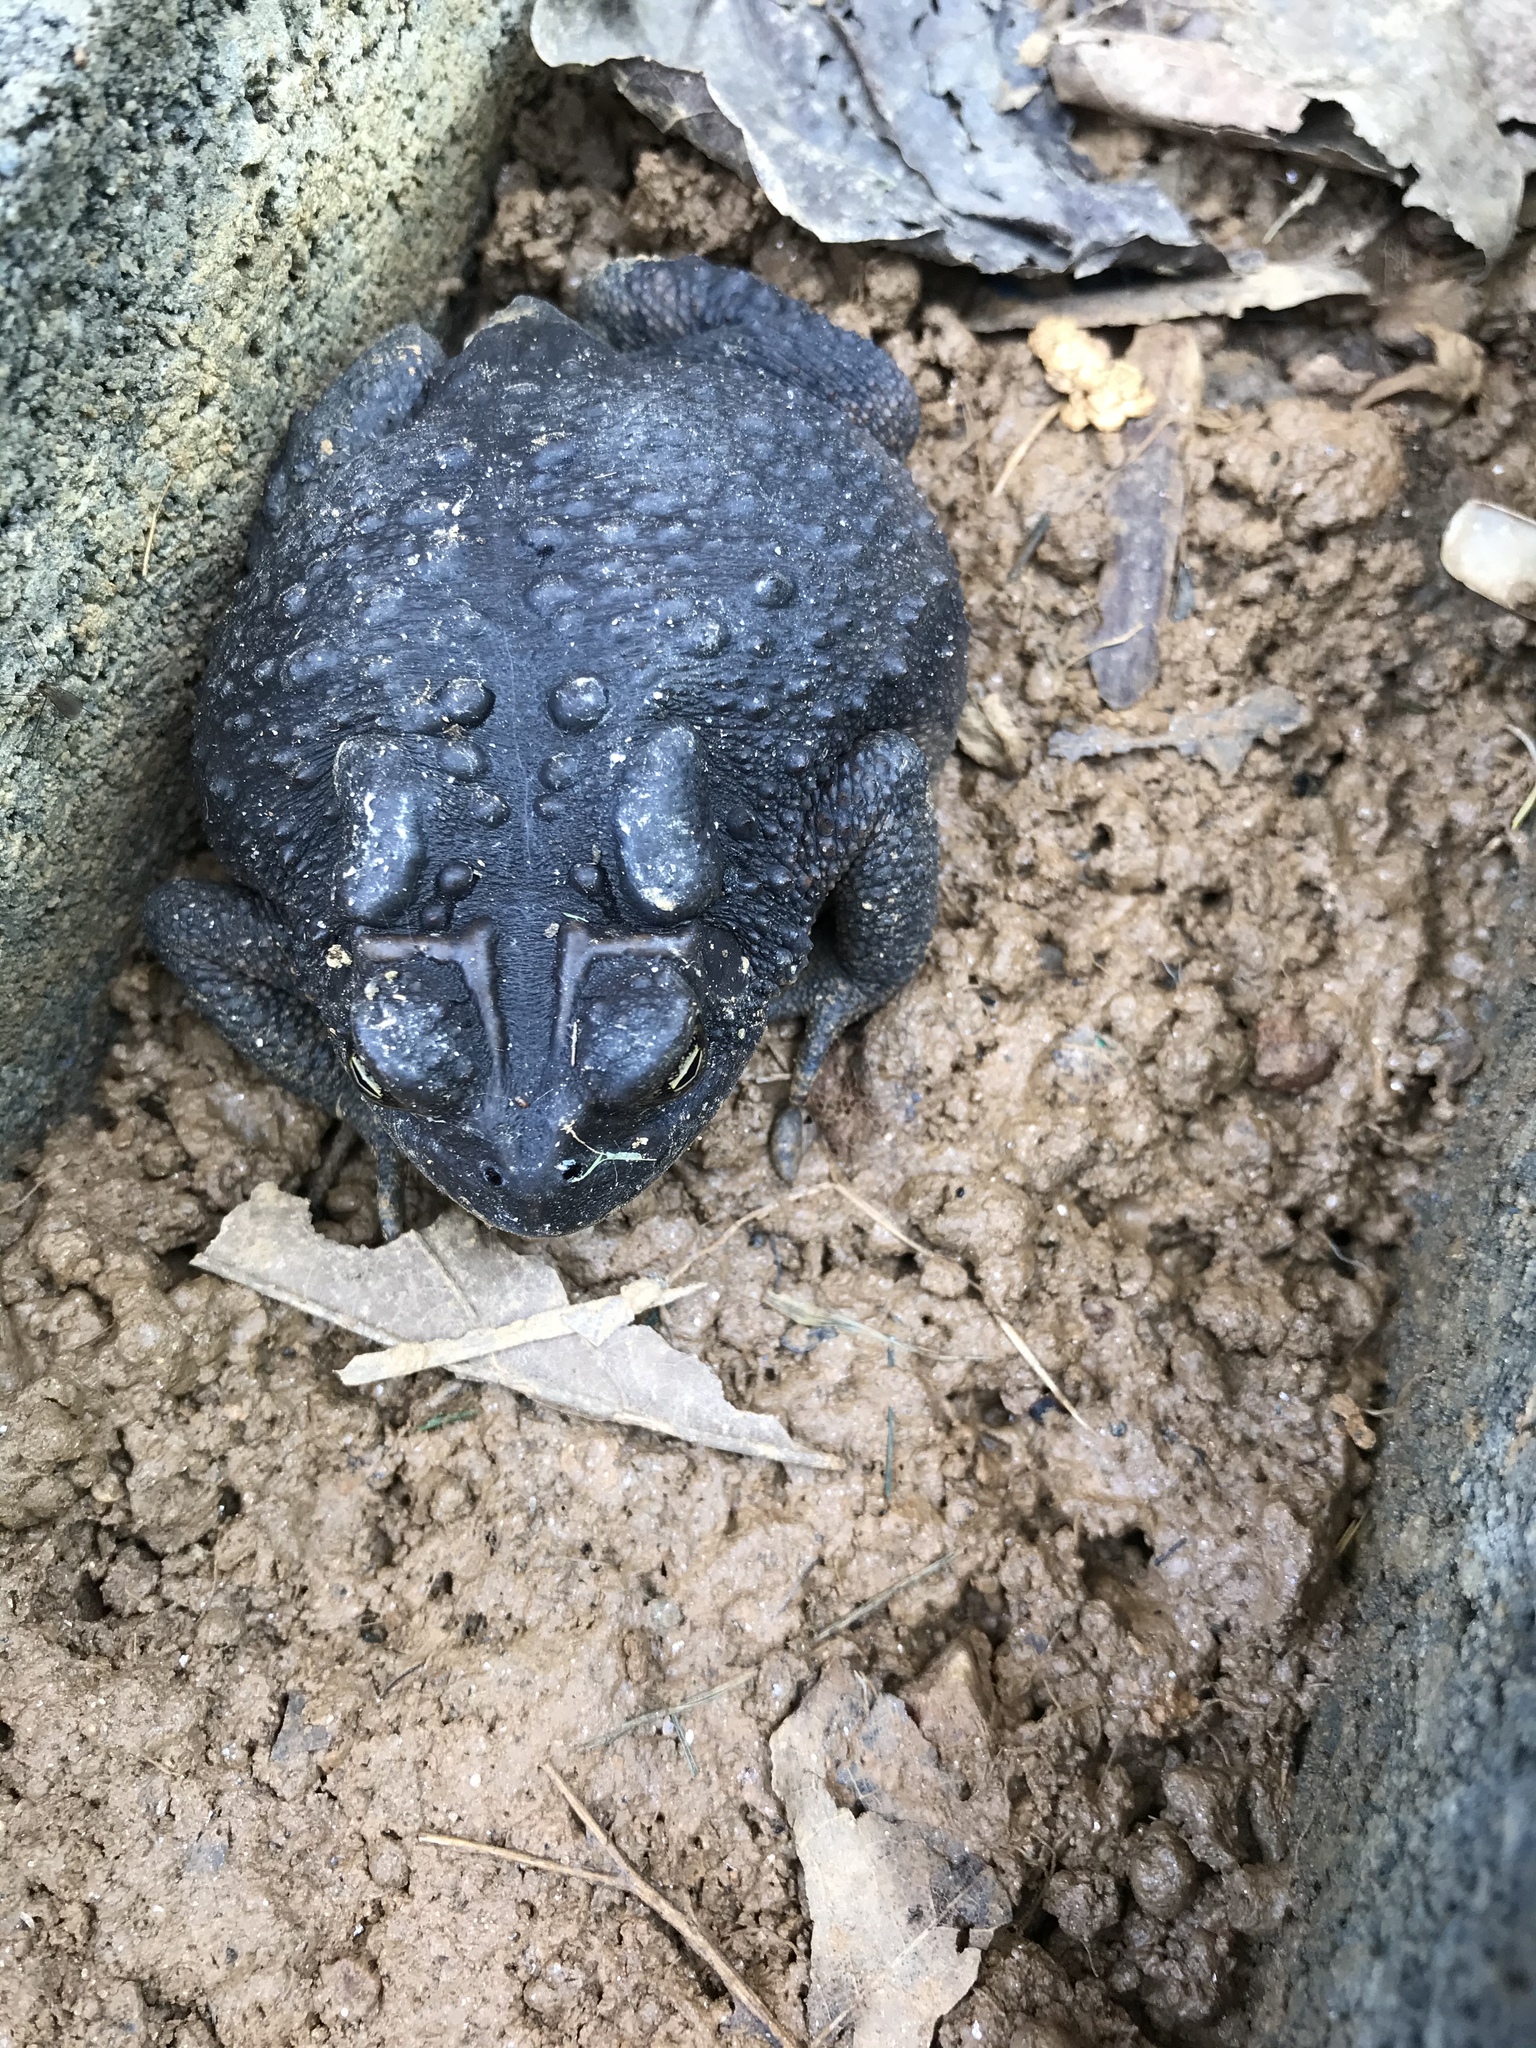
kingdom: Animalia
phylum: Chordata
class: Amphibia
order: Anura
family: Bufonidae
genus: Anaxyrus
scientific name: Anaxyrus americanus
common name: American toad
